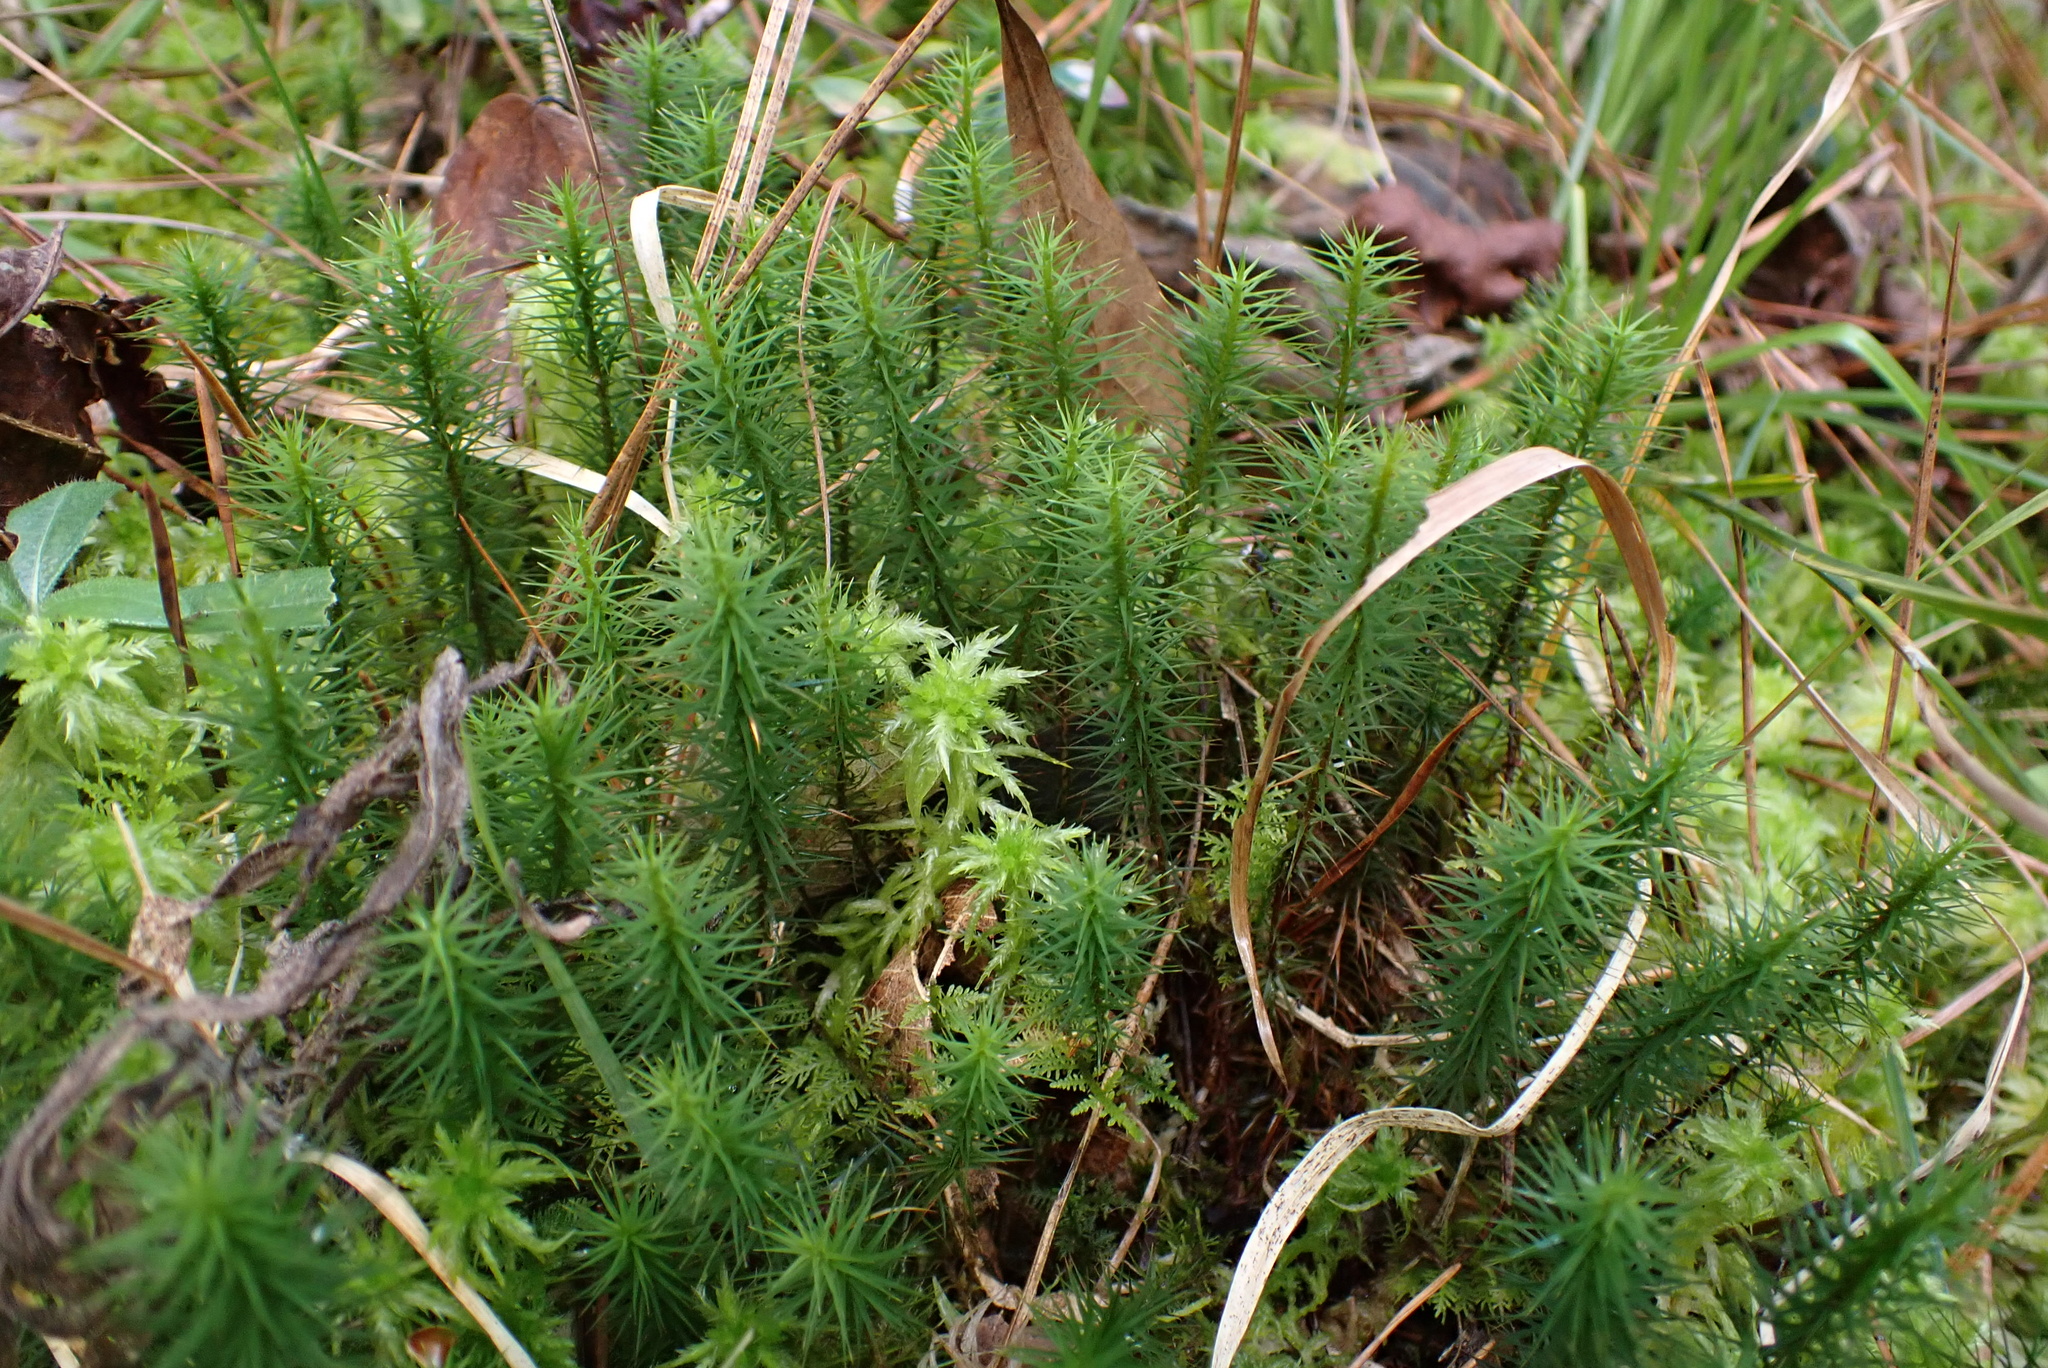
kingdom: Plantae
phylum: Bryophyta
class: Polytrichopsida
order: Polytrichales
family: Polytrichaceae
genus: Polytrichum
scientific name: Polytrichum commune
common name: Common haircap
